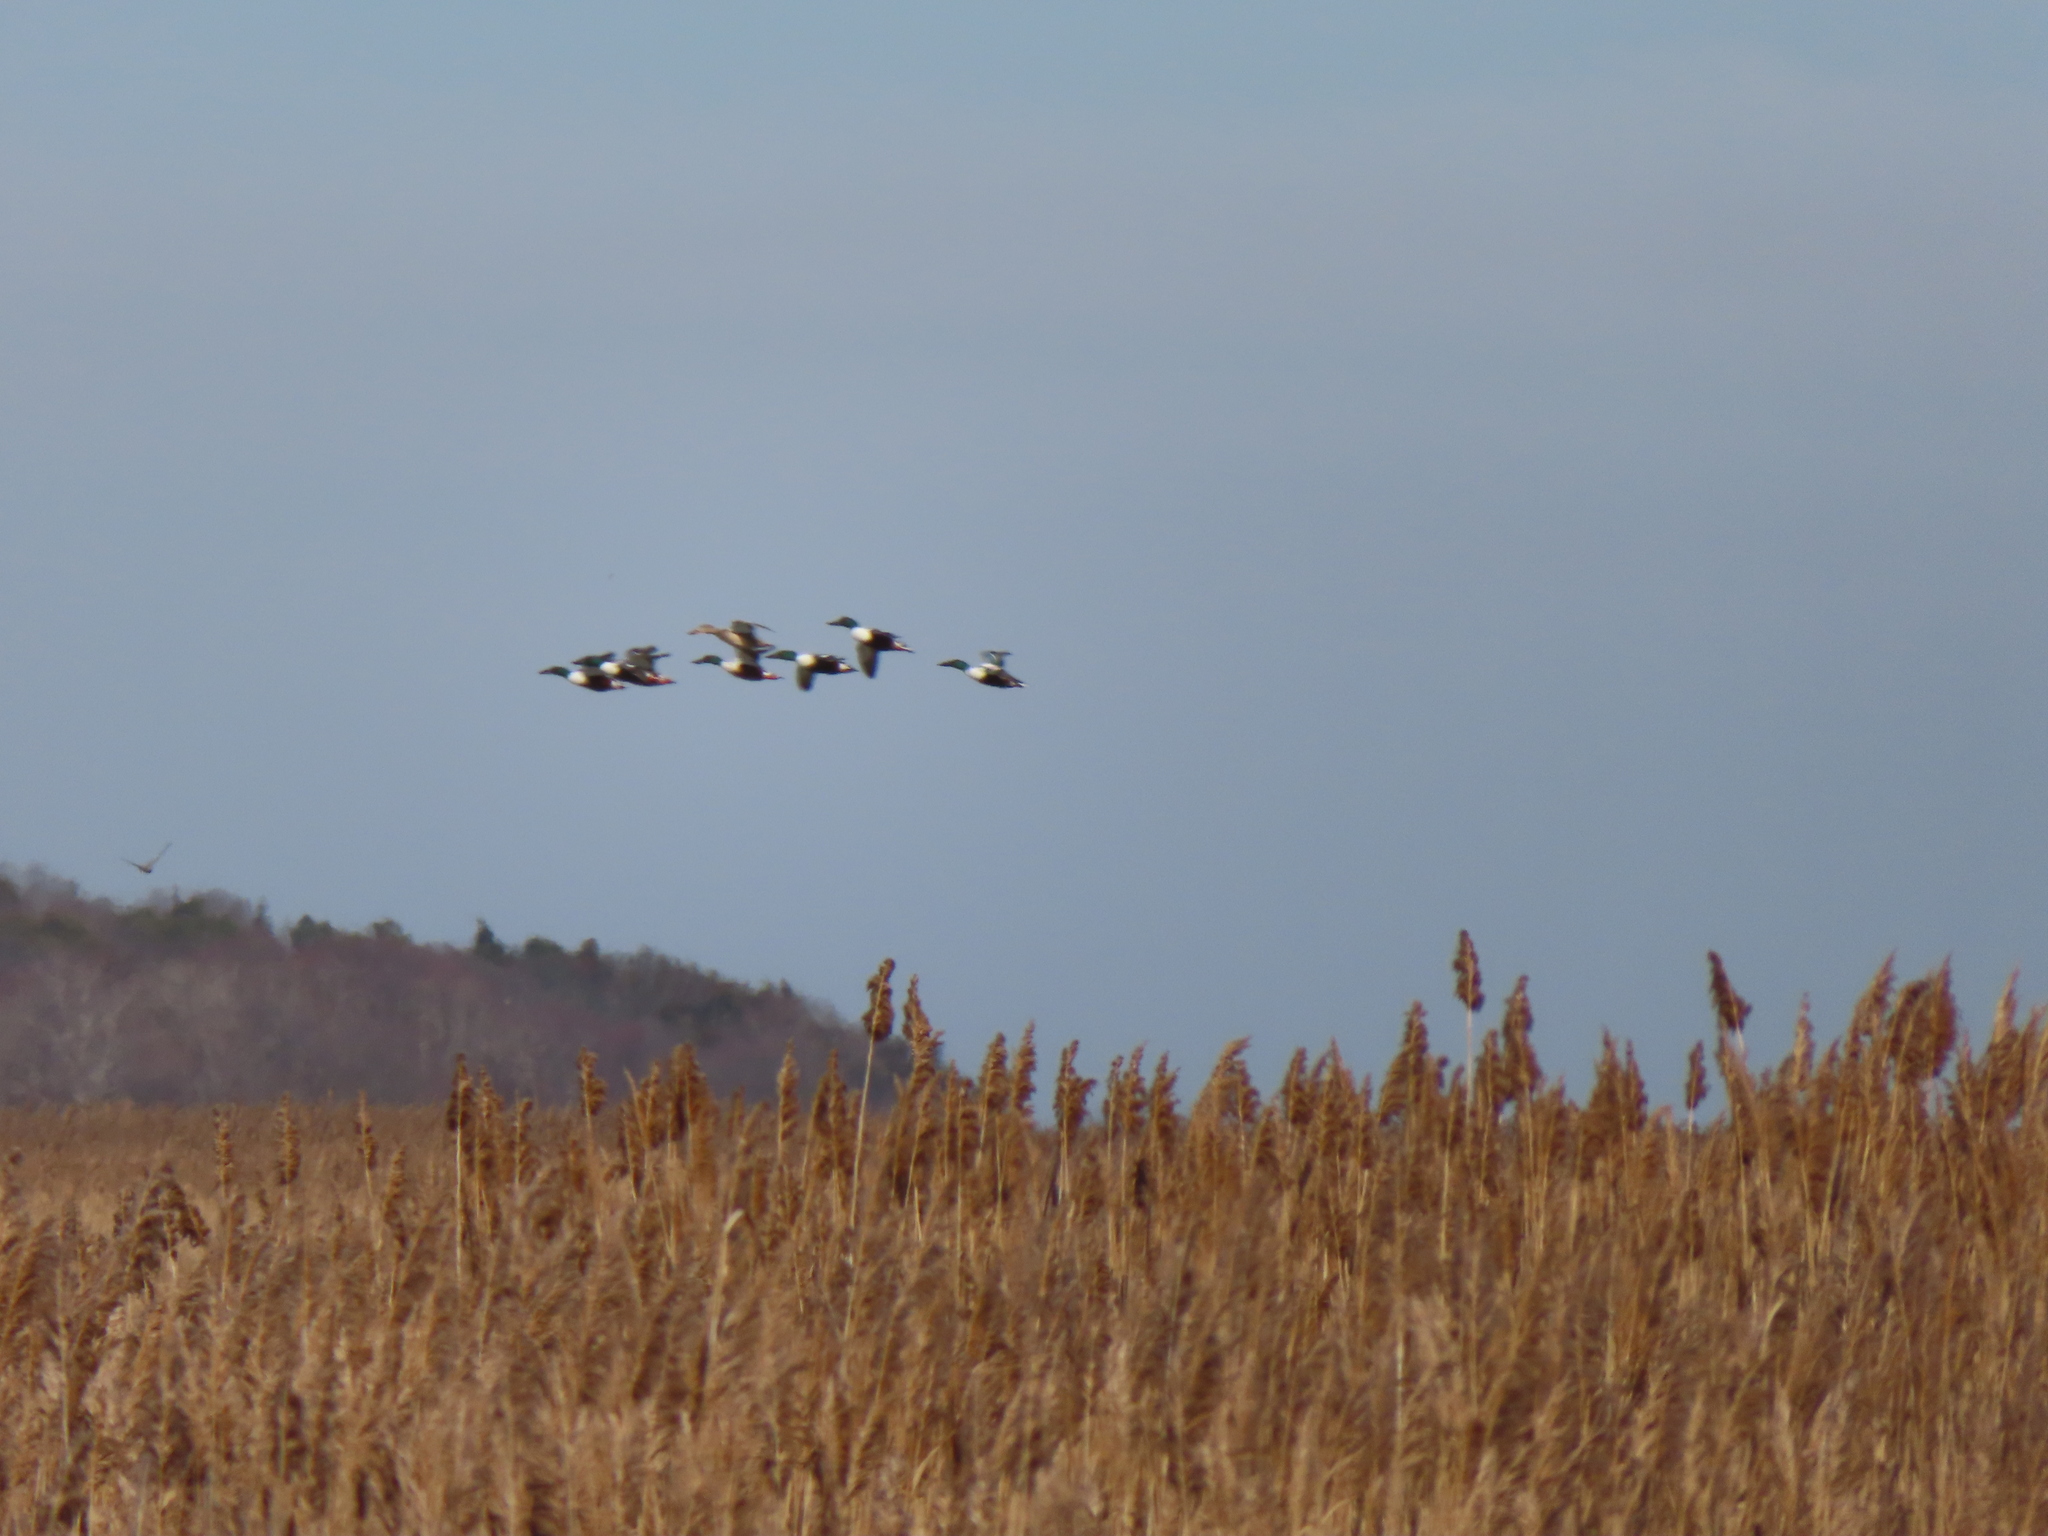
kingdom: Animalia
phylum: Chordata
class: Aves
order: Anseriformes
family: Anatidae
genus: Spatula
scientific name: Spatula clypeata
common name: Northern shoveler
